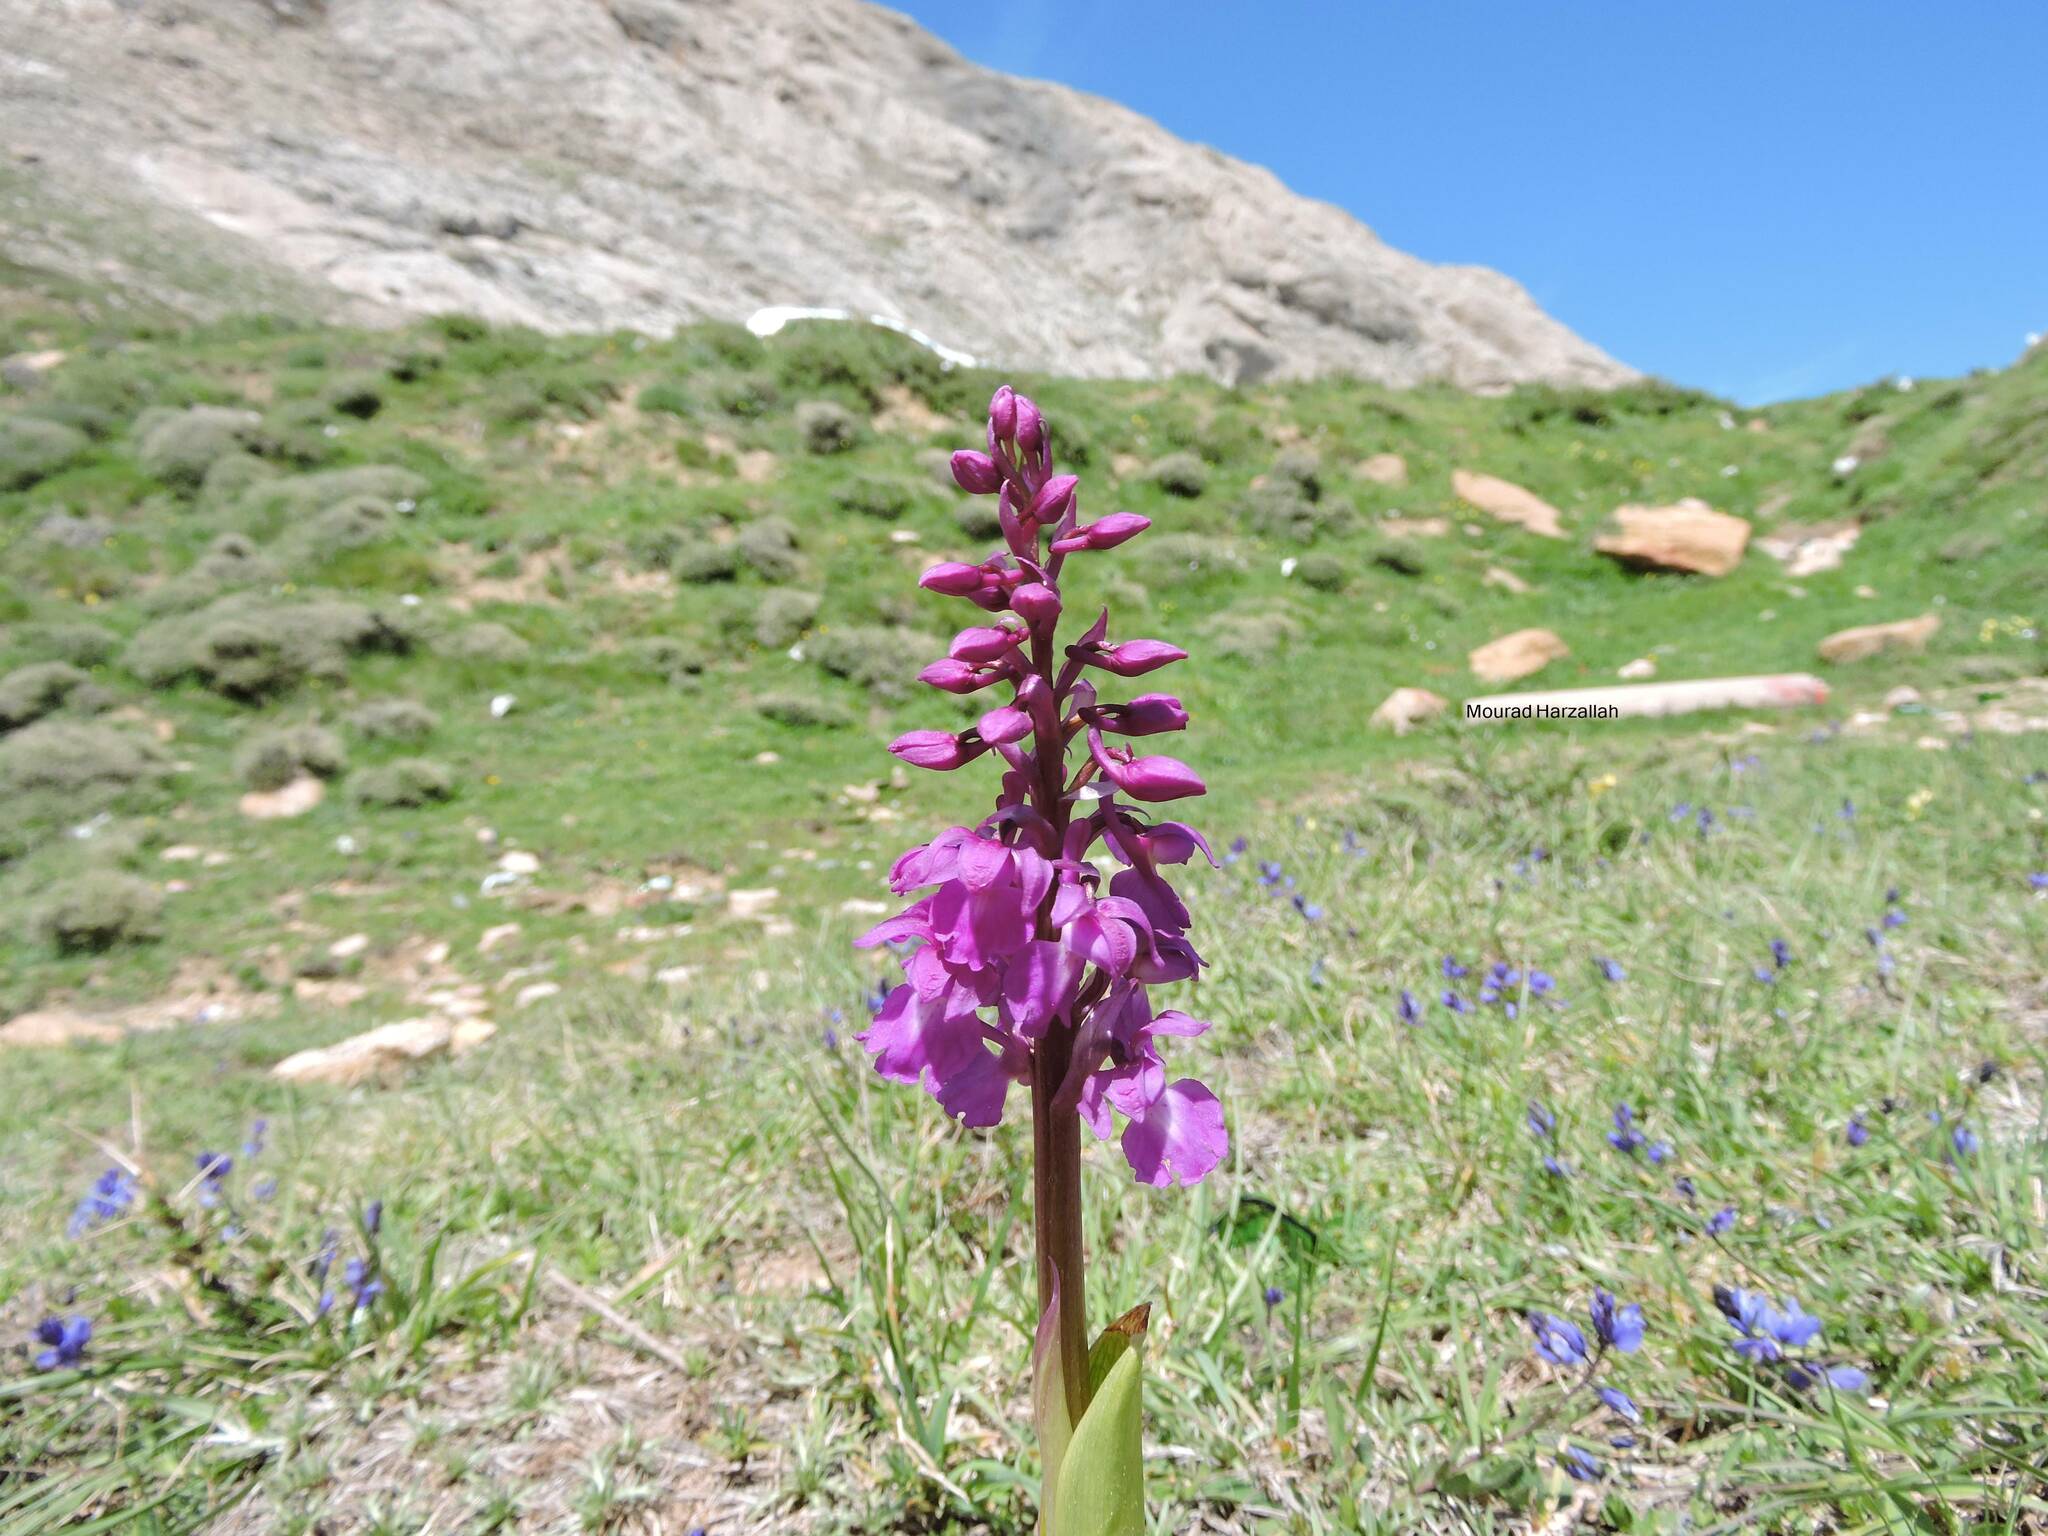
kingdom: Plantae
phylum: Tracheophyta
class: Liliopsida
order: Asparagales
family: Orchidaceae
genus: Orchis
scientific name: Orchis mascula
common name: Early-purple orchid
